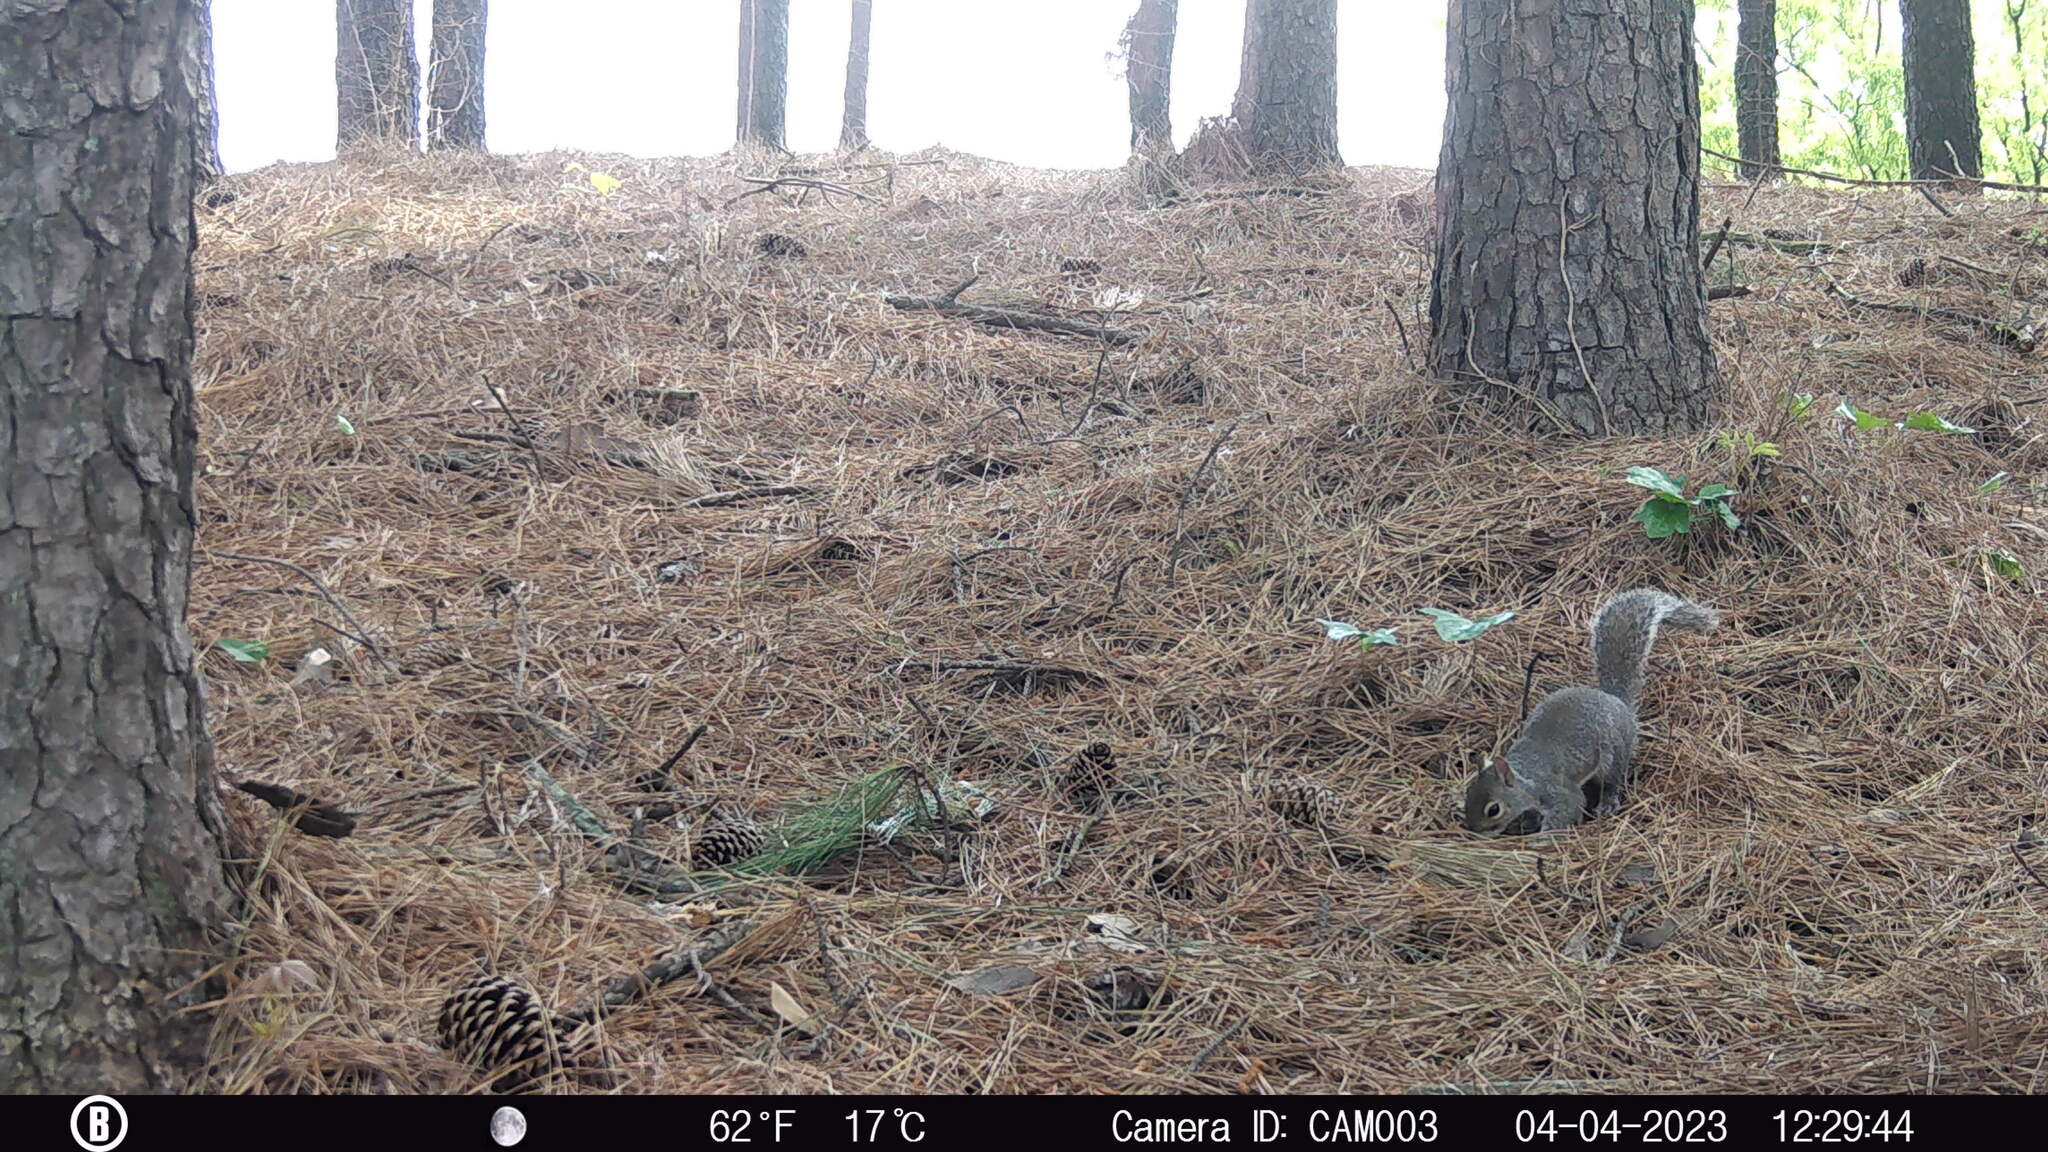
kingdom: Animalia
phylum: Chordata
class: Mammalia
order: Rodentia
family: Sciuridae
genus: Sciurus
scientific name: Sciurus carolinensis
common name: Eastern gray squirrel
